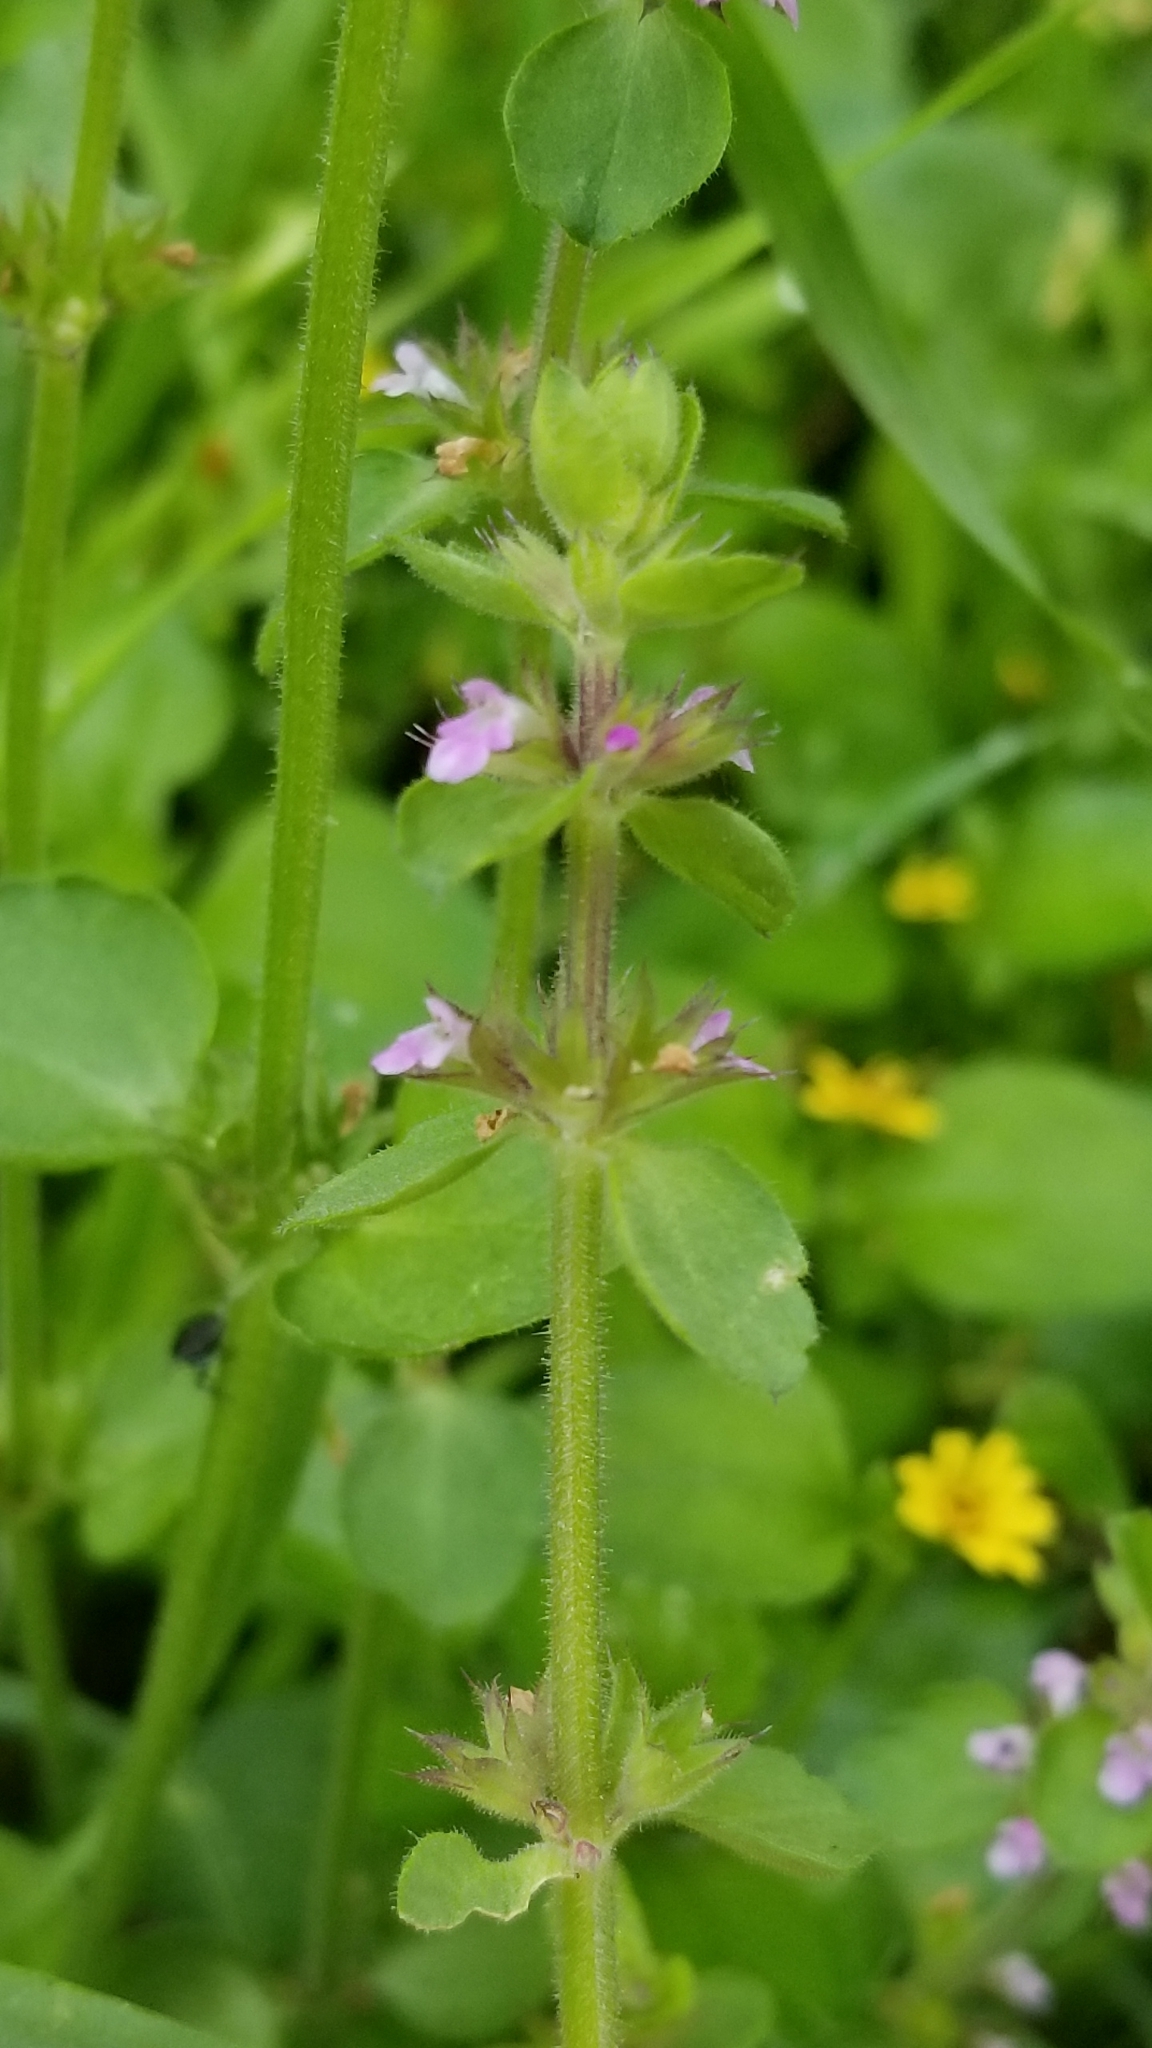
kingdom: Plantae
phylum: Tracheophyta
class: Magnoliopsida
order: Lamiales
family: Lamiaceae
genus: Stachys
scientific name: Stachys
